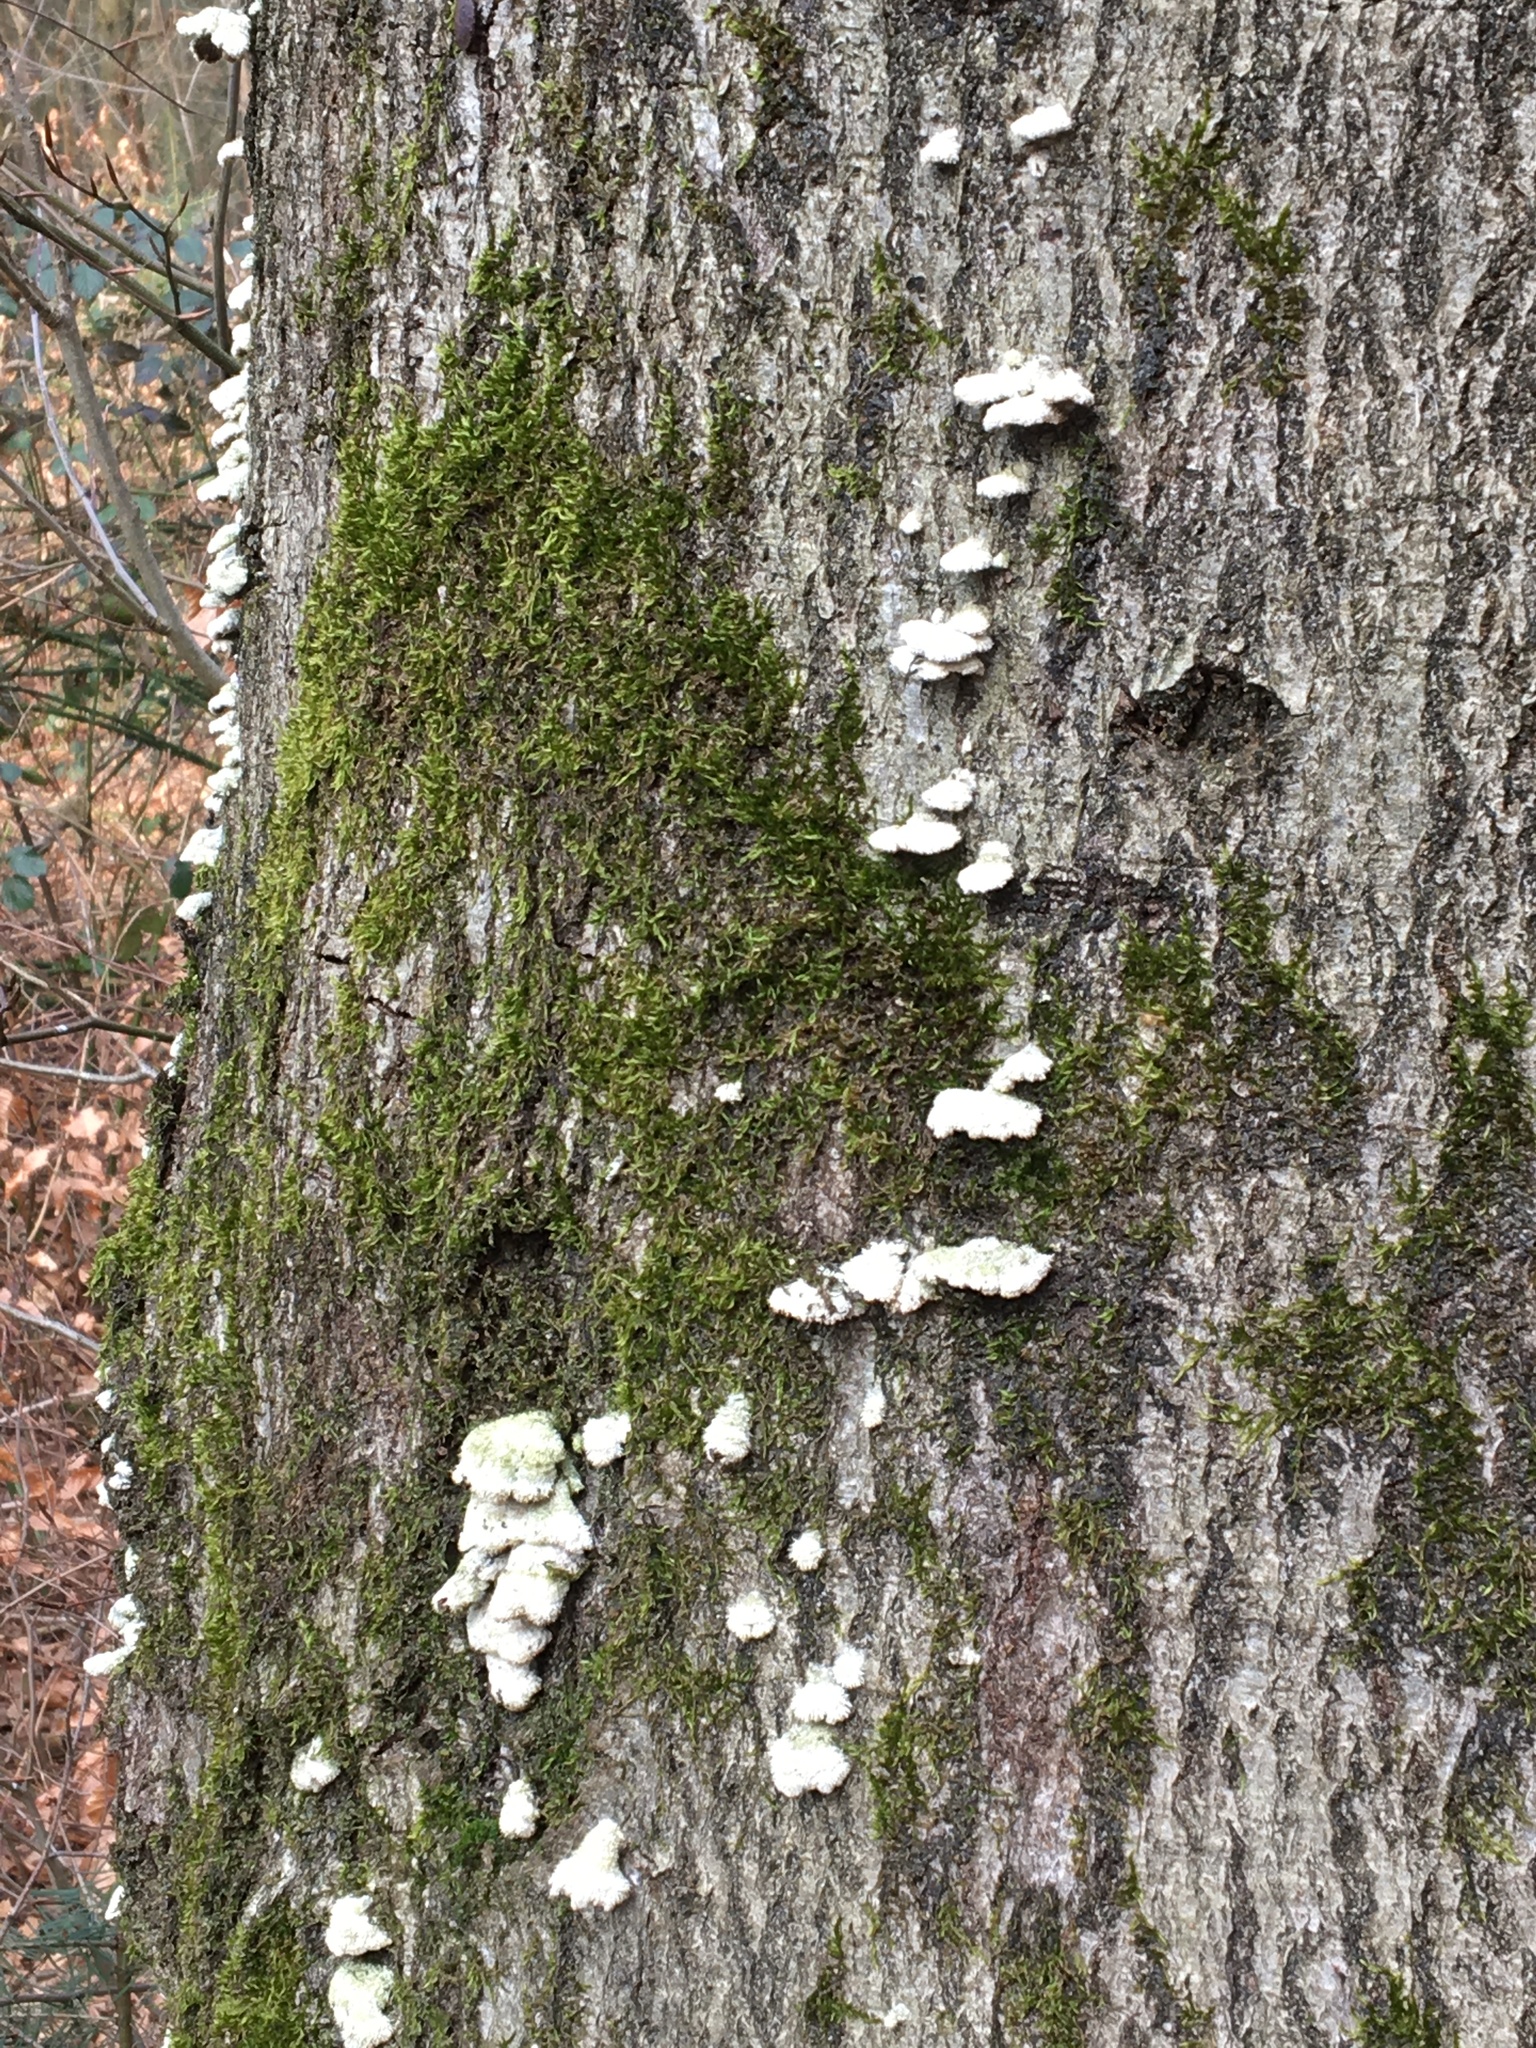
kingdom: Fungi
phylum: Basidiomycota
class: Agaricomycetes
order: Agaricales
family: Schizophyllaceae
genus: Schizophyllum
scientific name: Schizophyllum commune
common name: Common porecrust
